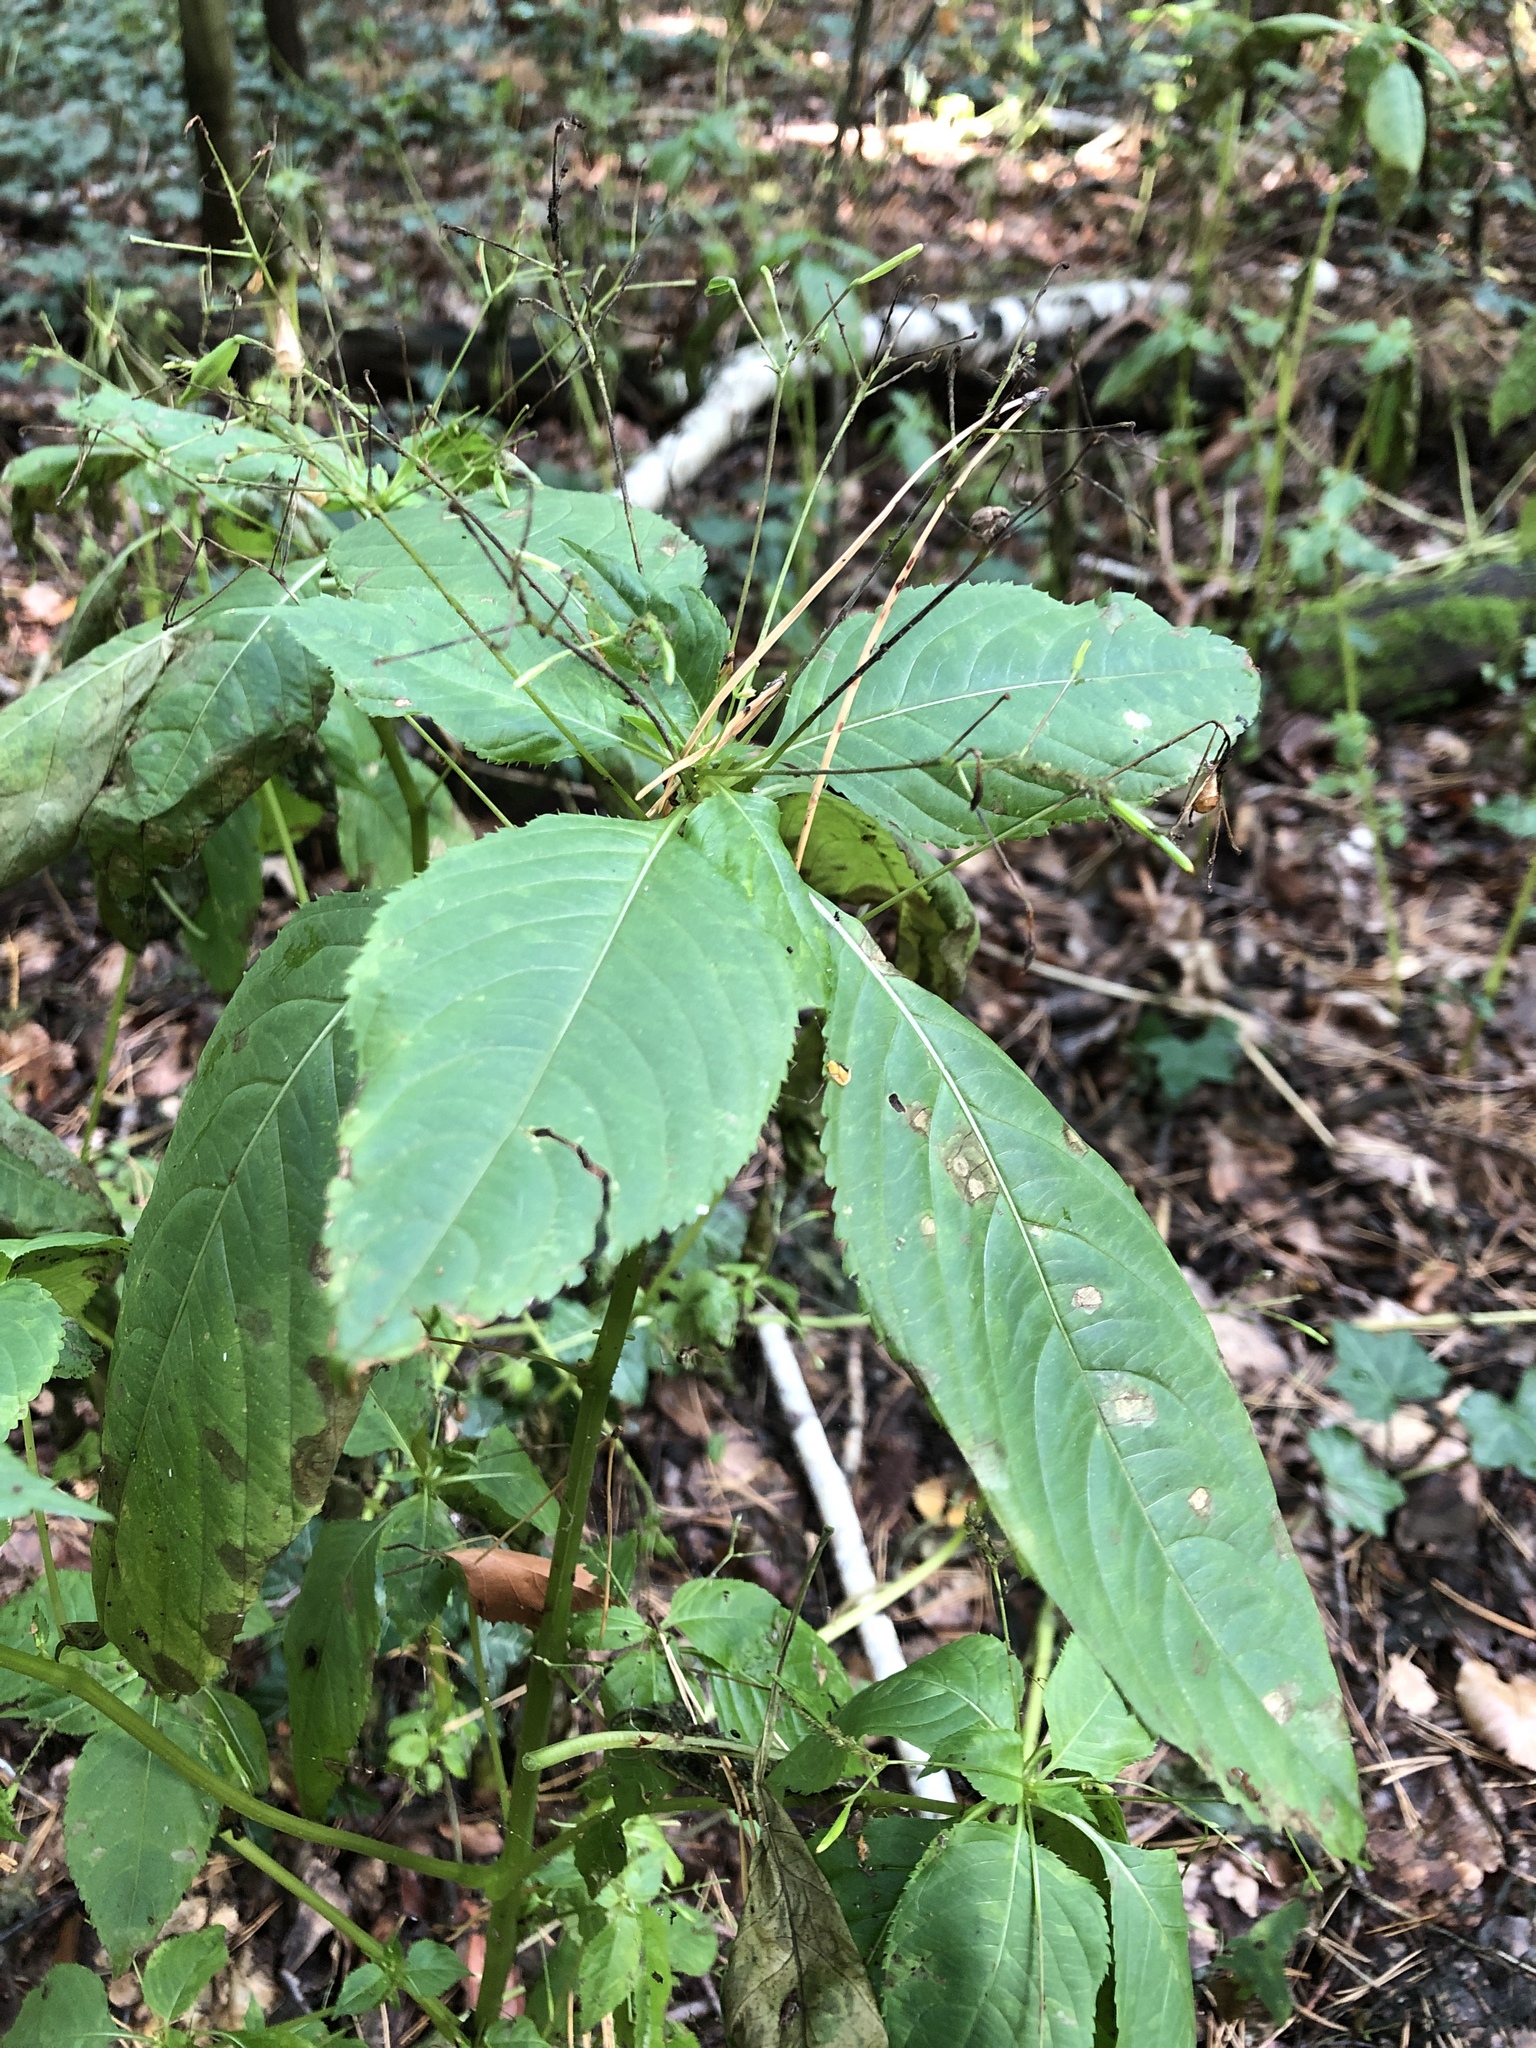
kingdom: Plantae
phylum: Tracheophyta
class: Magnoliopsida
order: Ericales
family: Balsaminaceae
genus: Impatiens
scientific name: Impatiens parviflora
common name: Small balsam
